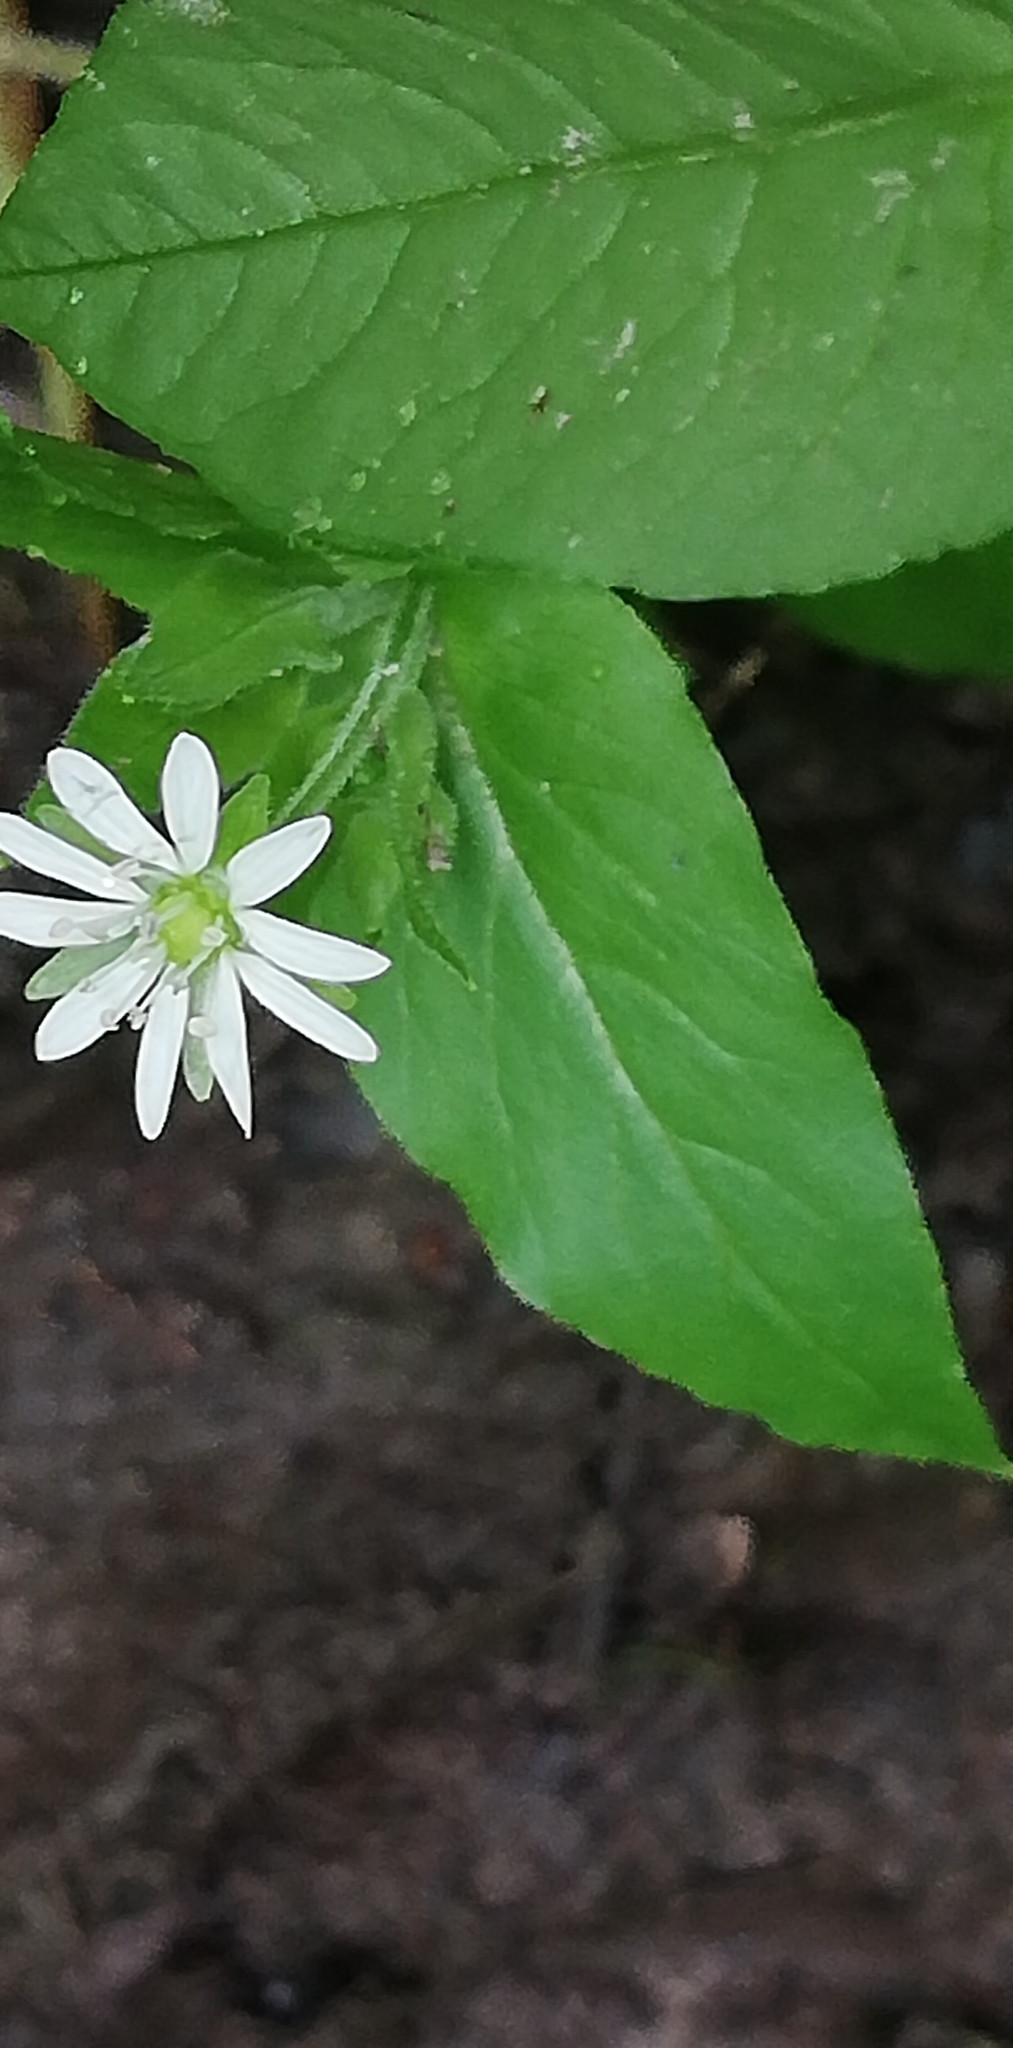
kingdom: Plantae
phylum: Tracheophyta
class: Magnoliopsida
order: Caryophyllales
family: Caryophyllaceae
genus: Stellaria
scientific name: Stellaria aquatica
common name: Water chickweed
